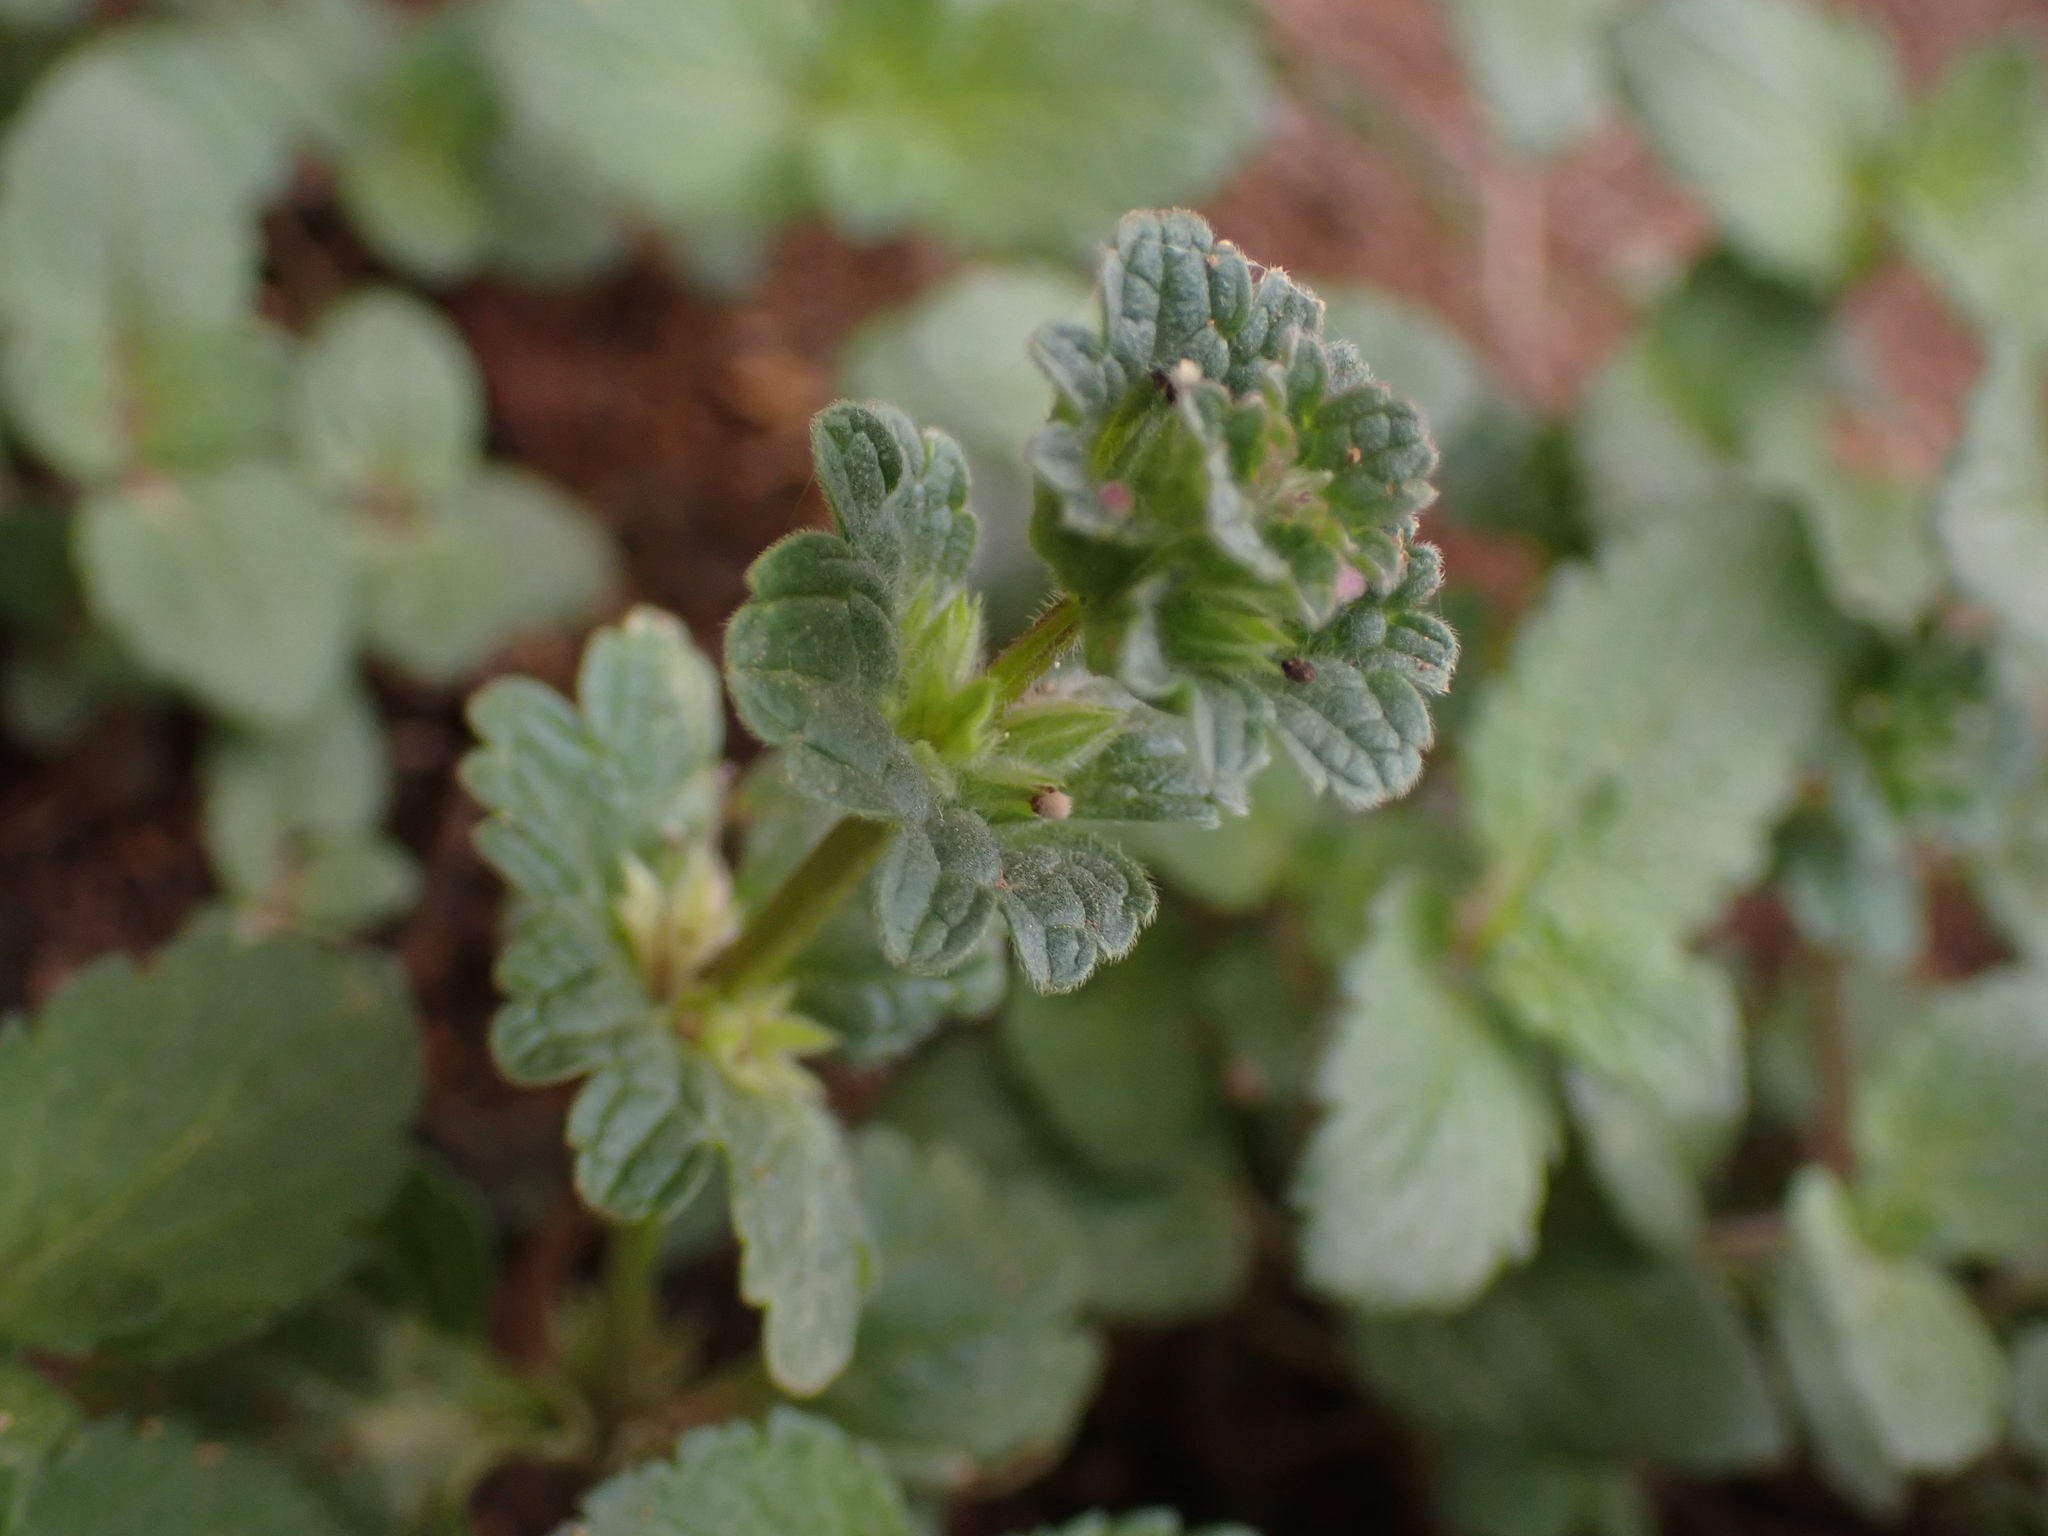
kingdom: Plantae
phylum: Tracheophyta
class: Magnoliopsida
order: Lamiales
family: Lamiaceae
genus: Lamium
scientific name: Lamium amplexicaule
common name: Henbit dead-nettle
